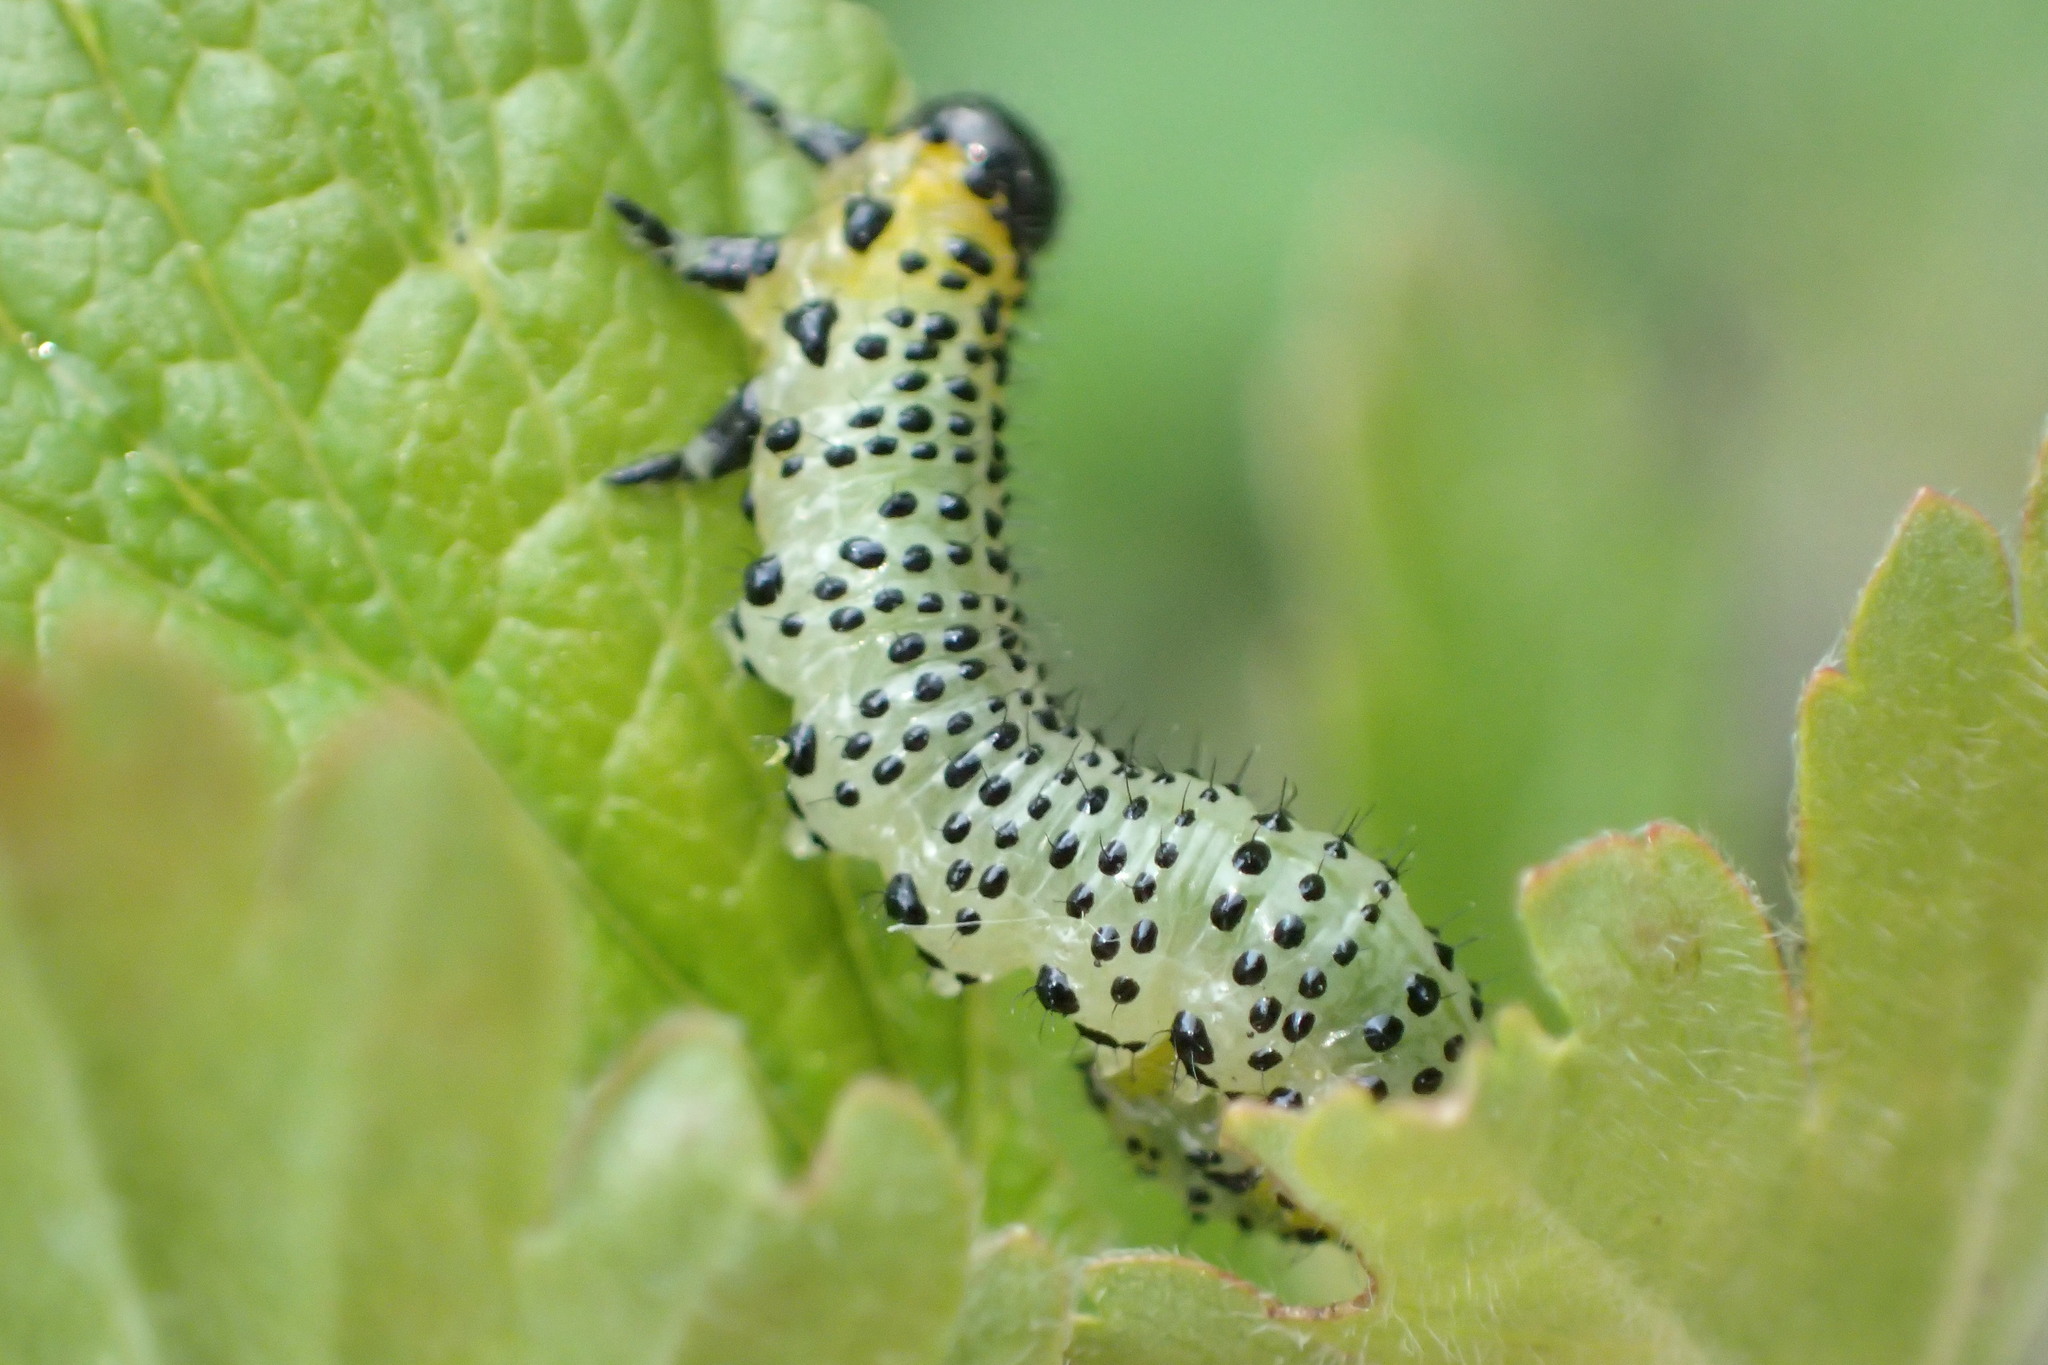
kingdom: Animalia
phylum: Arthropoda
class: Insecta
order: Hymenoptera
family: Tenthredinidae
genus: Nematus
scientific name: Nematus ribesii
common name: Imported currantworm
